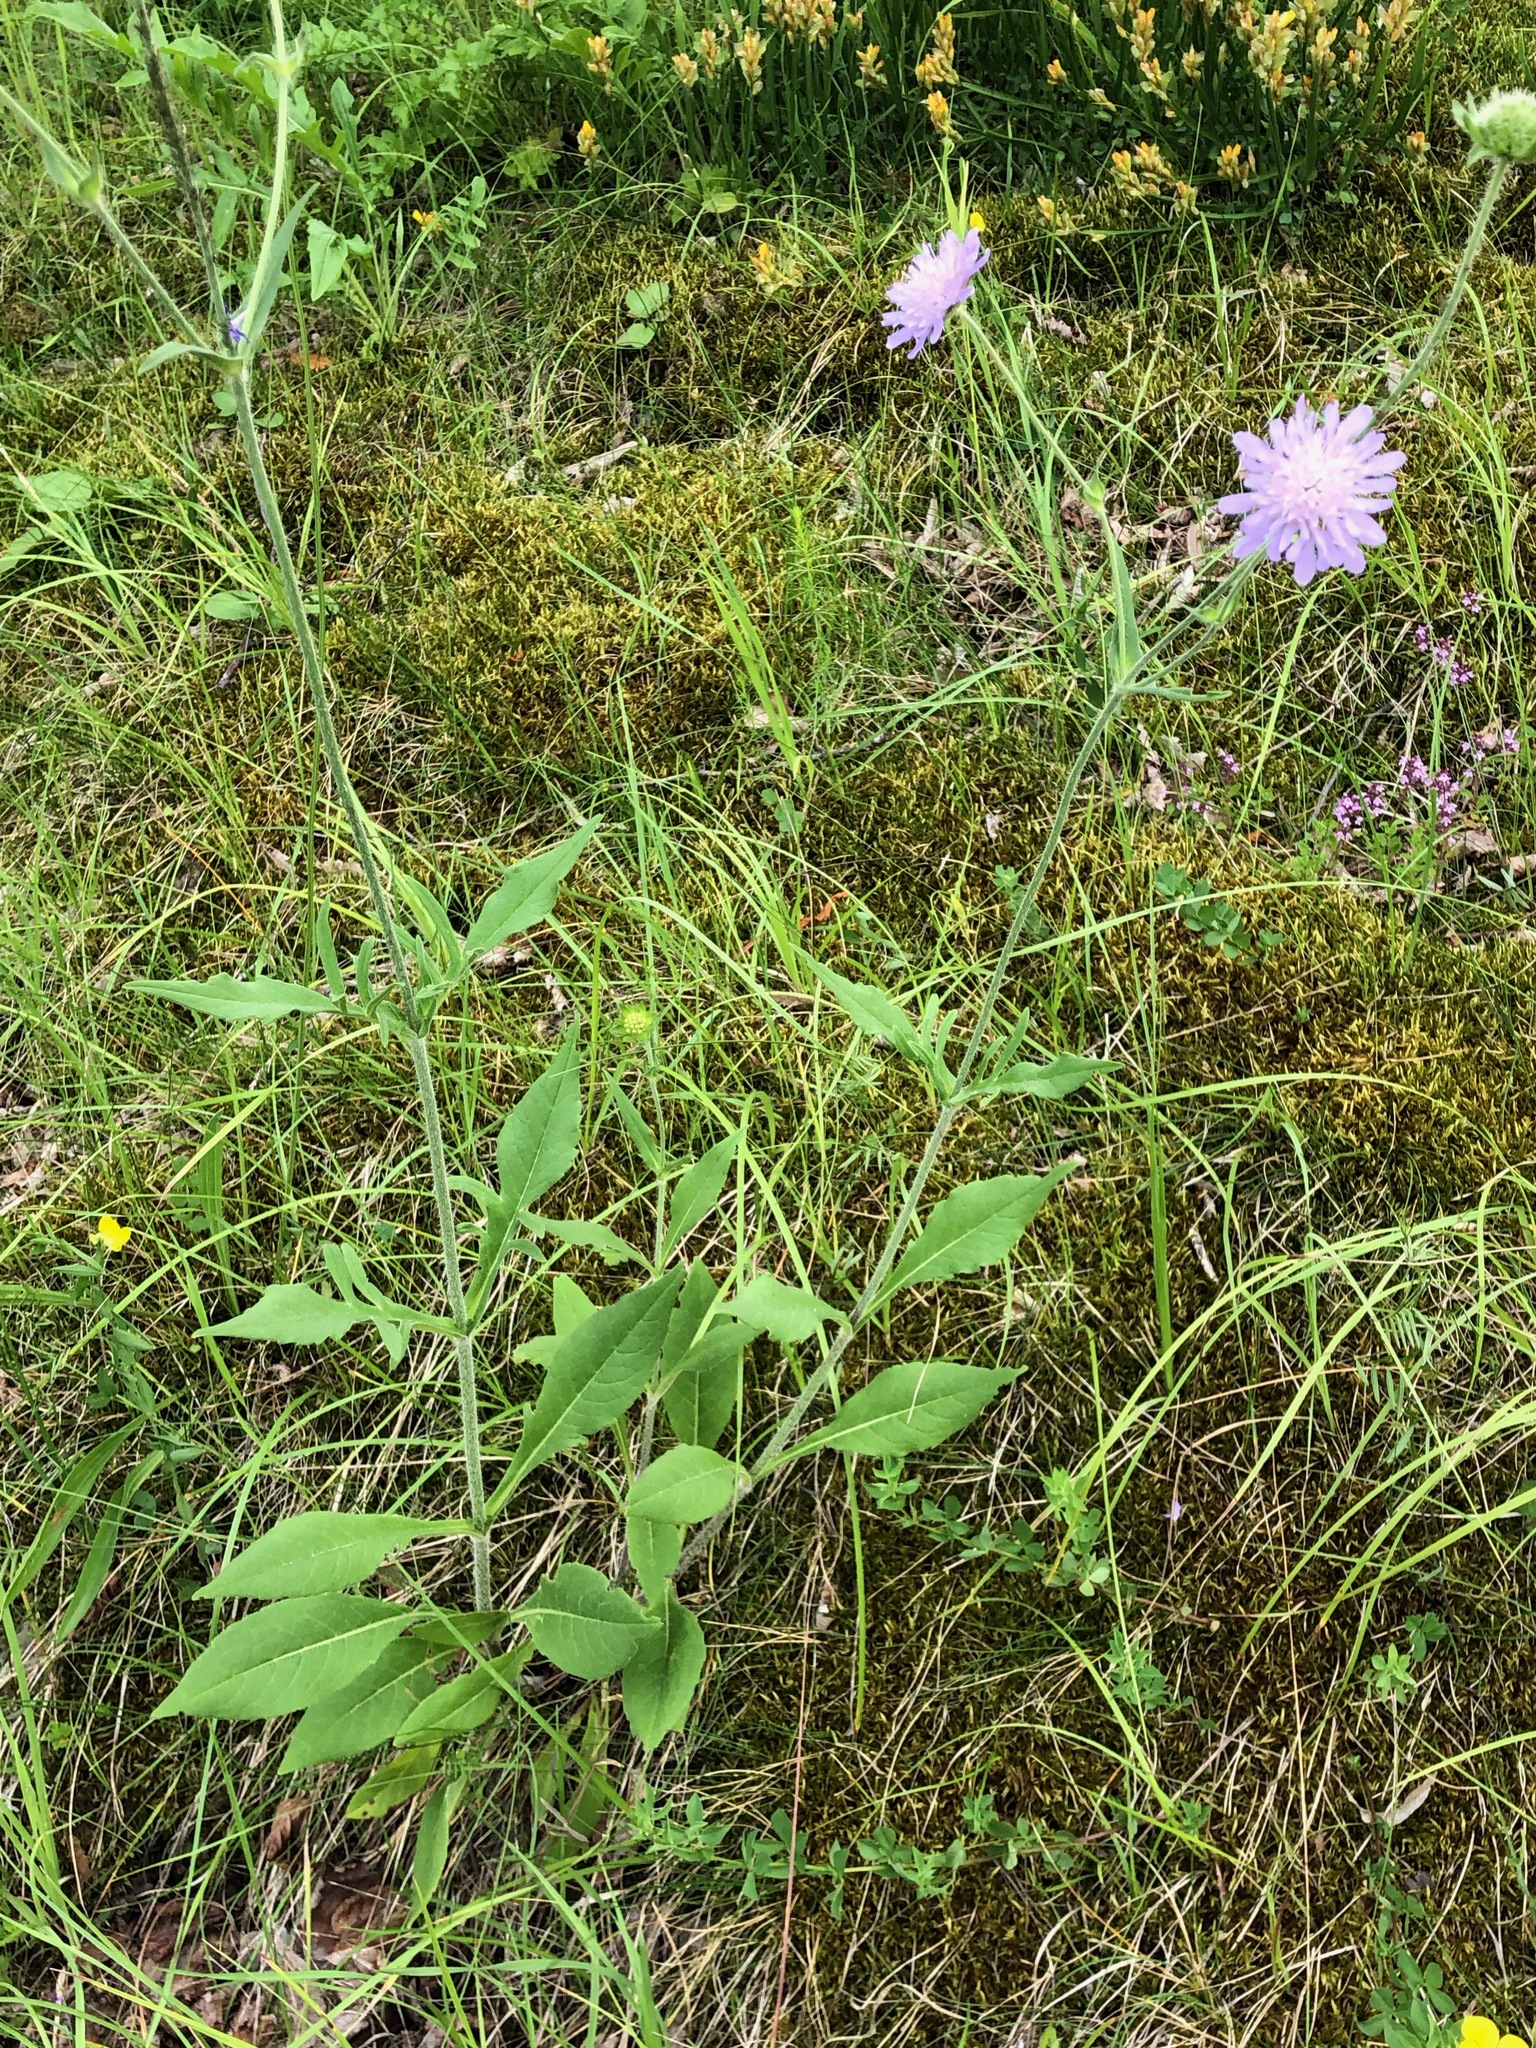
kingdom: Plantae
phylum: Tracheophyta
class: Magnoliopsida
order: Dipsacales
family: Caprifoliaceae
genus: Knautia
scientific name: Knautia dipsacifolia
